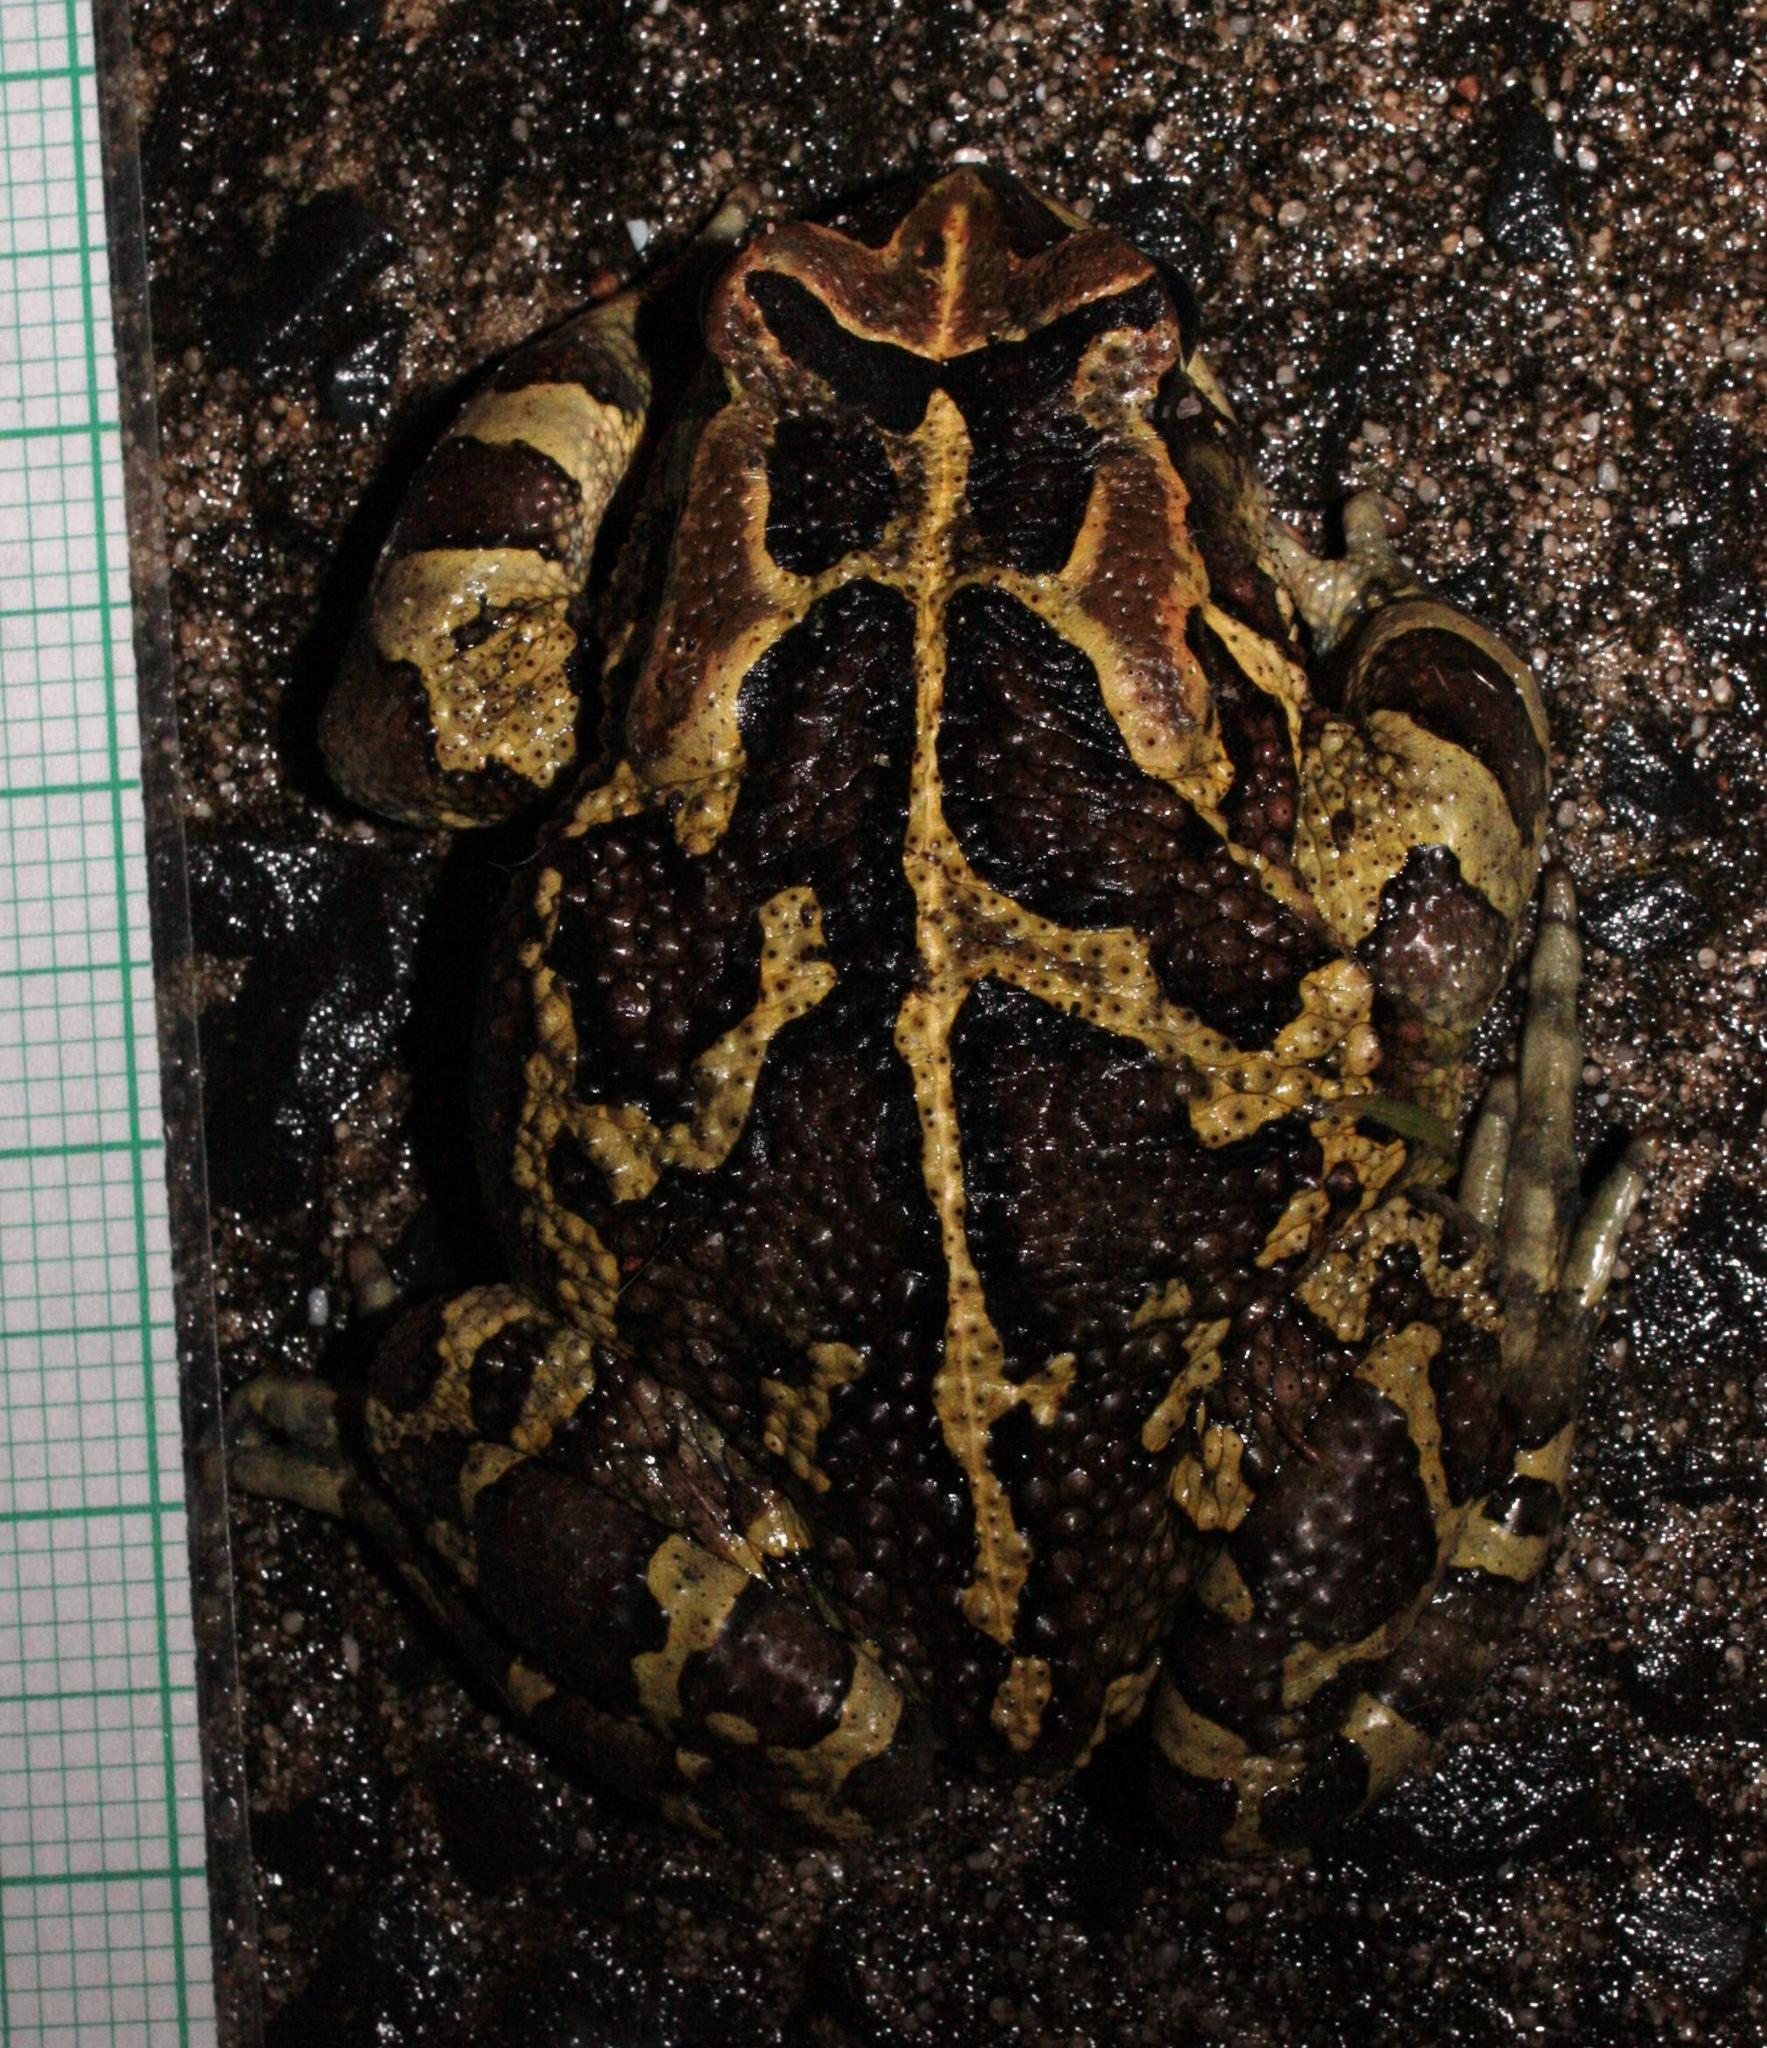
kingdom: Animalia
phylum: Chordata
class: Amphibia
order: Anura
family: Bufonidae
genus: Sclerophrys
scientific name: Sclerophrys pantherina
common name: Panther toad
